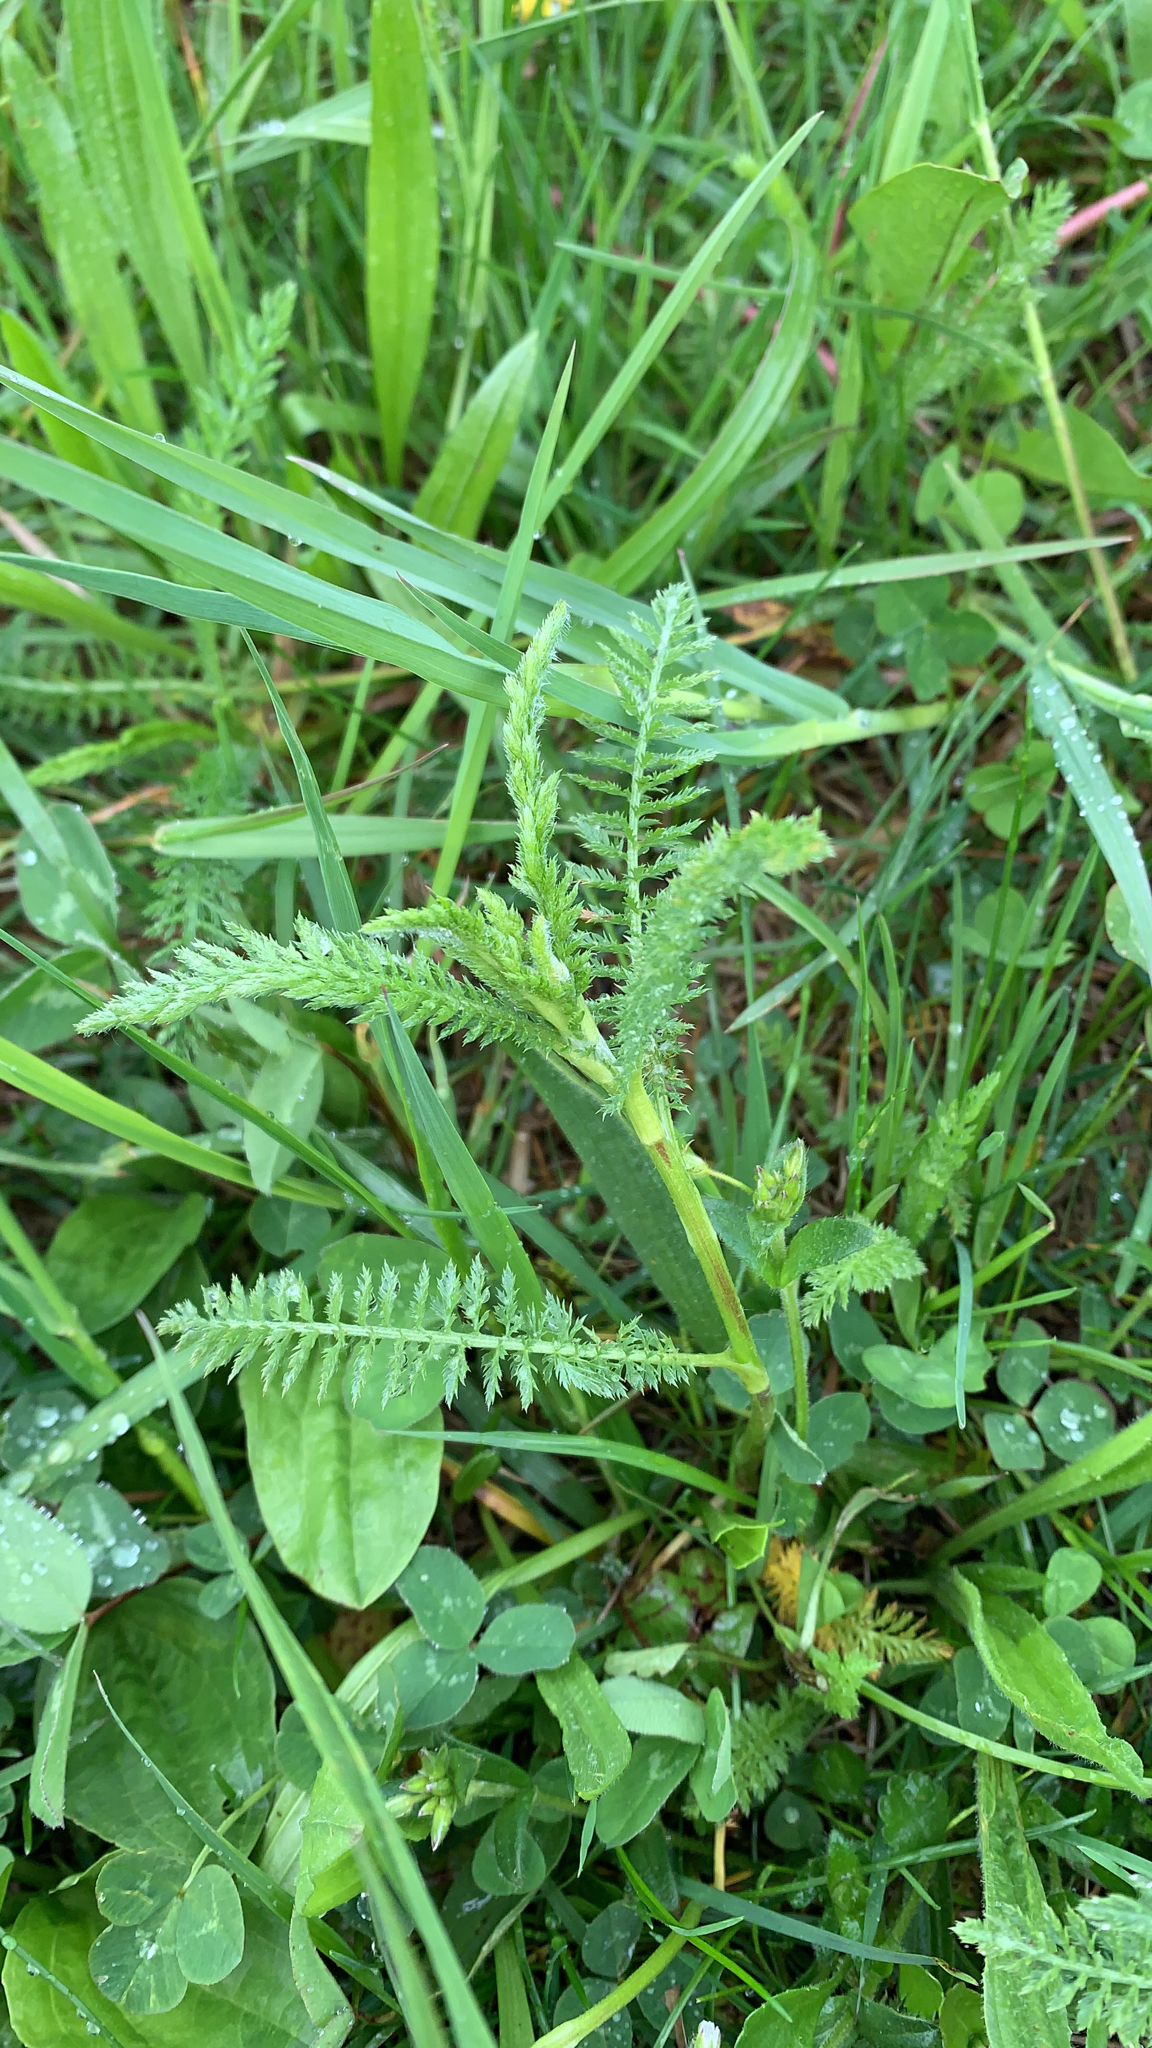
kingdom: Plantae
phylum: Tracheophyta
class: Magnoliopsida
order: Asterales
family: Asteraceae
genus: Achillea
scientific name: Achillea millefolium
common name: Yarrow
